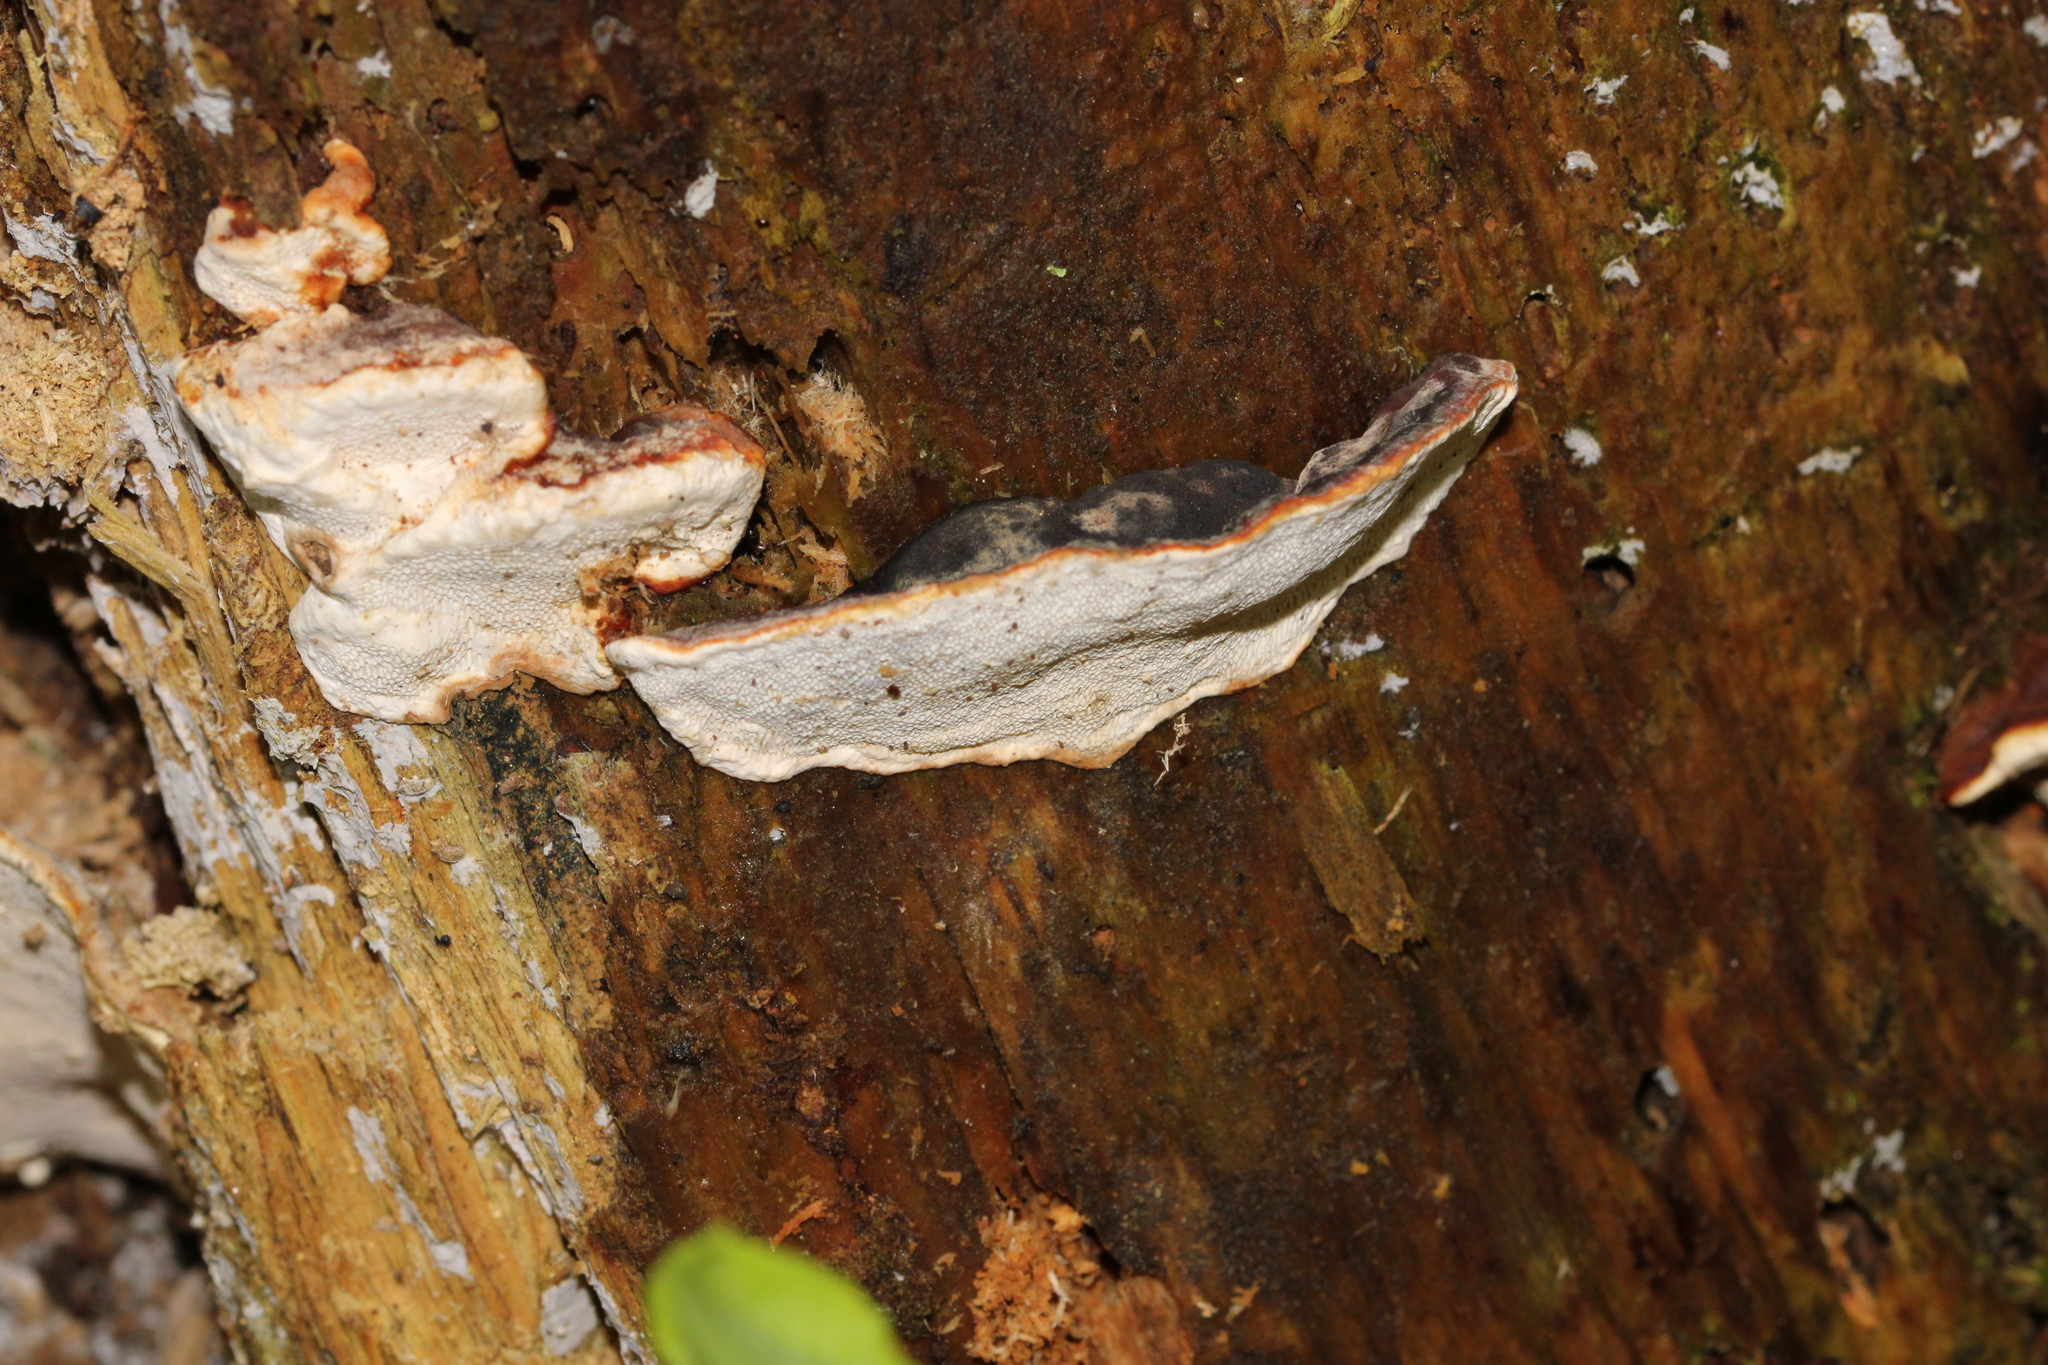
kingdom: Fungi
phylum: Basidiomycota
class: Agaricomycetes
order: Russulales
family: Bondarzewiaceae
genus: Heterobasidion
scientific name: Heterobasidion annosum
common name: Root rot
